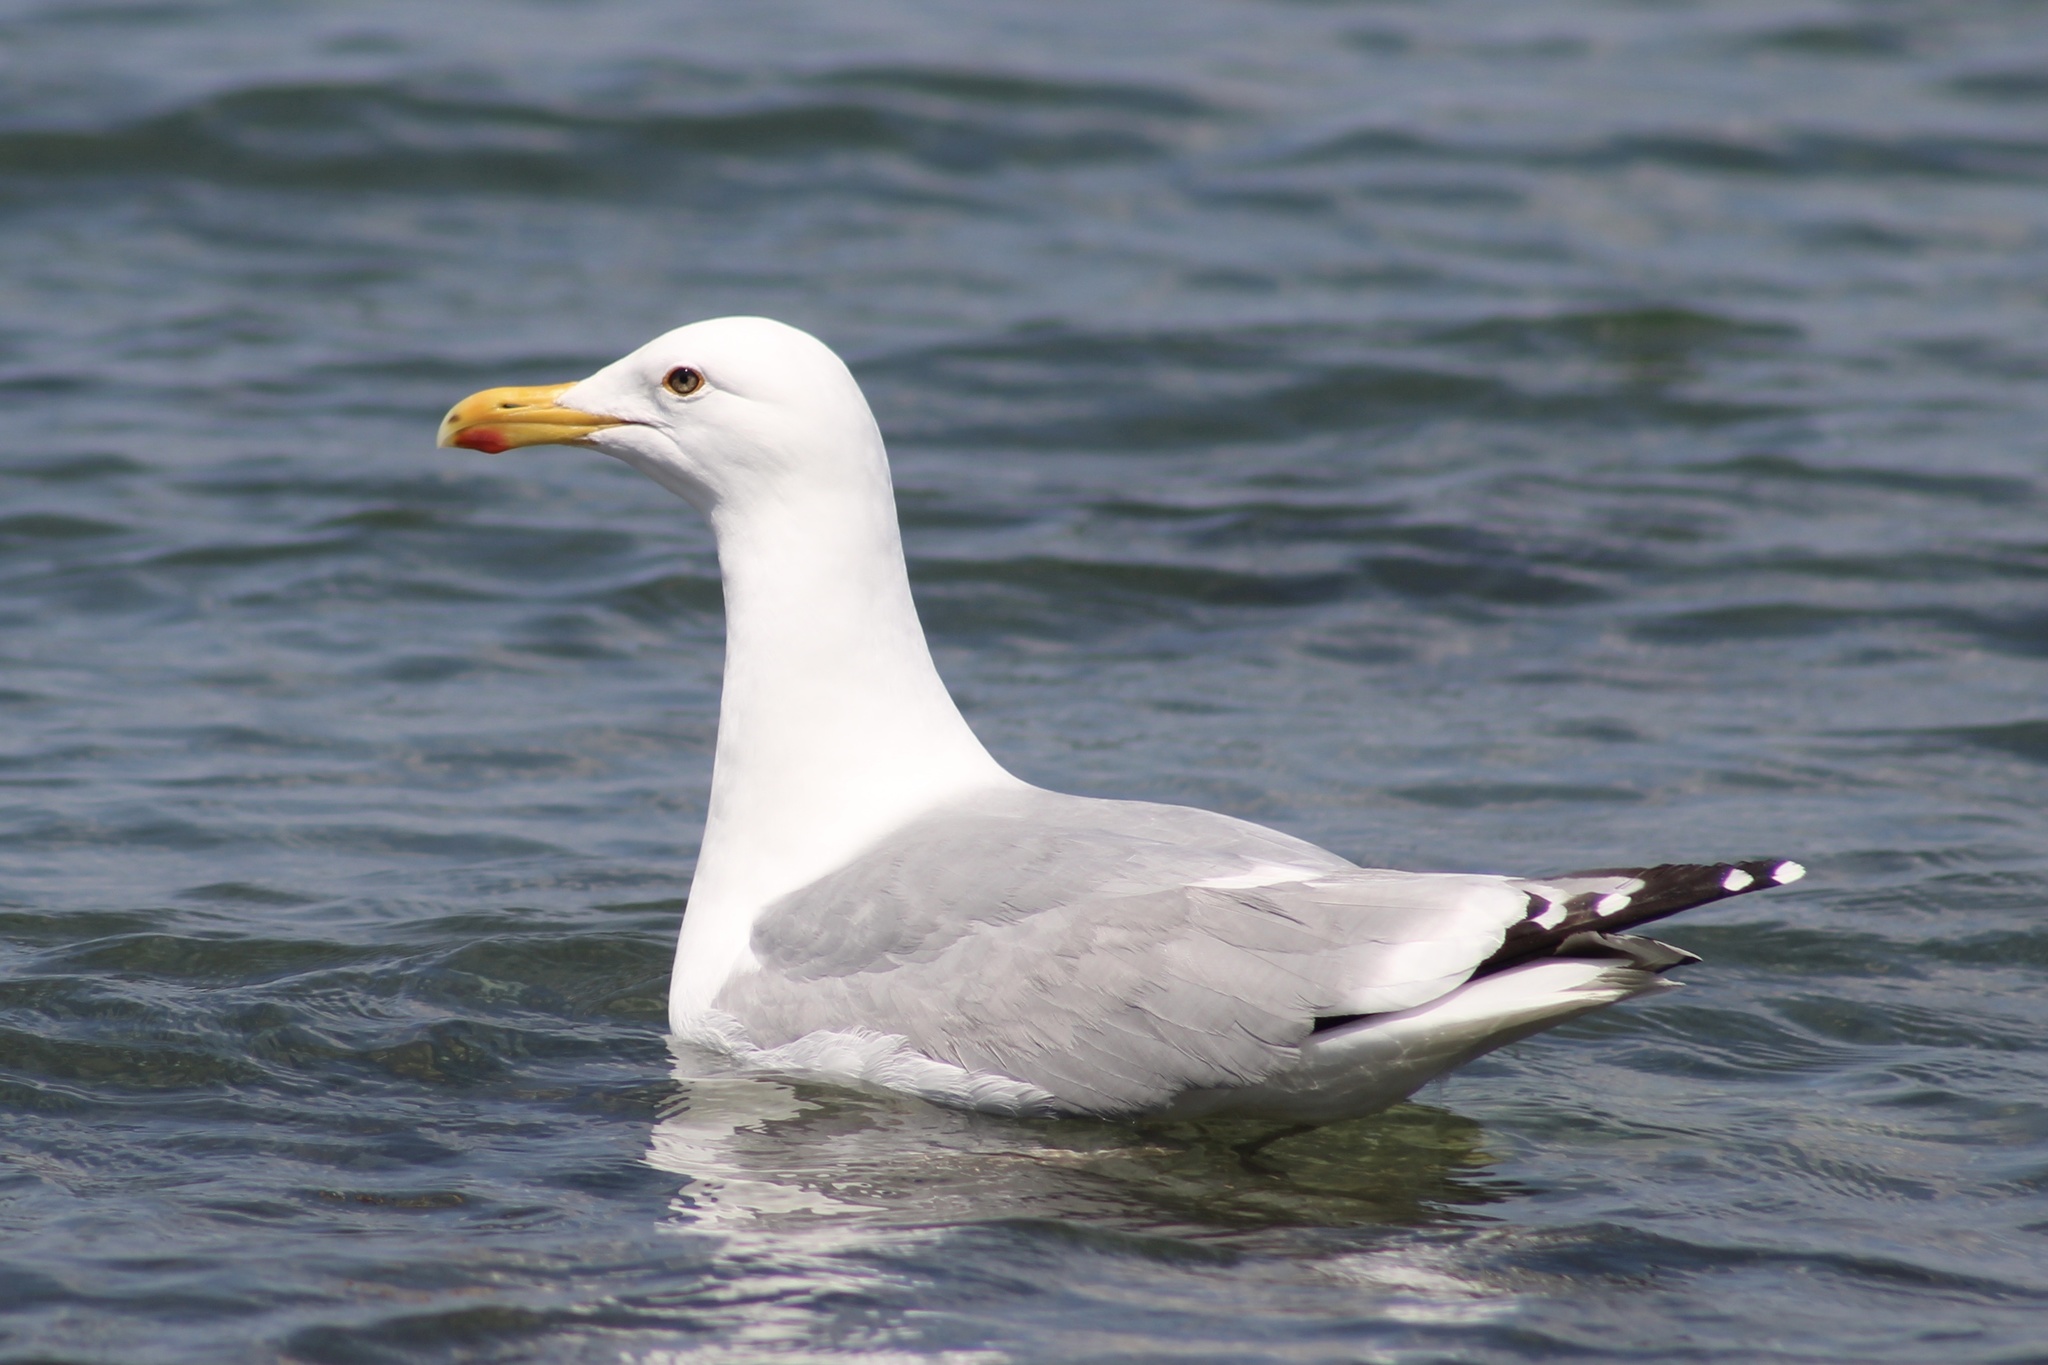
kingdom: Animalia
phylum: Chordata
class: Aves
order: Charadriiformes
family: Laridae
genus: Larus
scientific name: Larus smithsonianus
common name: American herring gull
